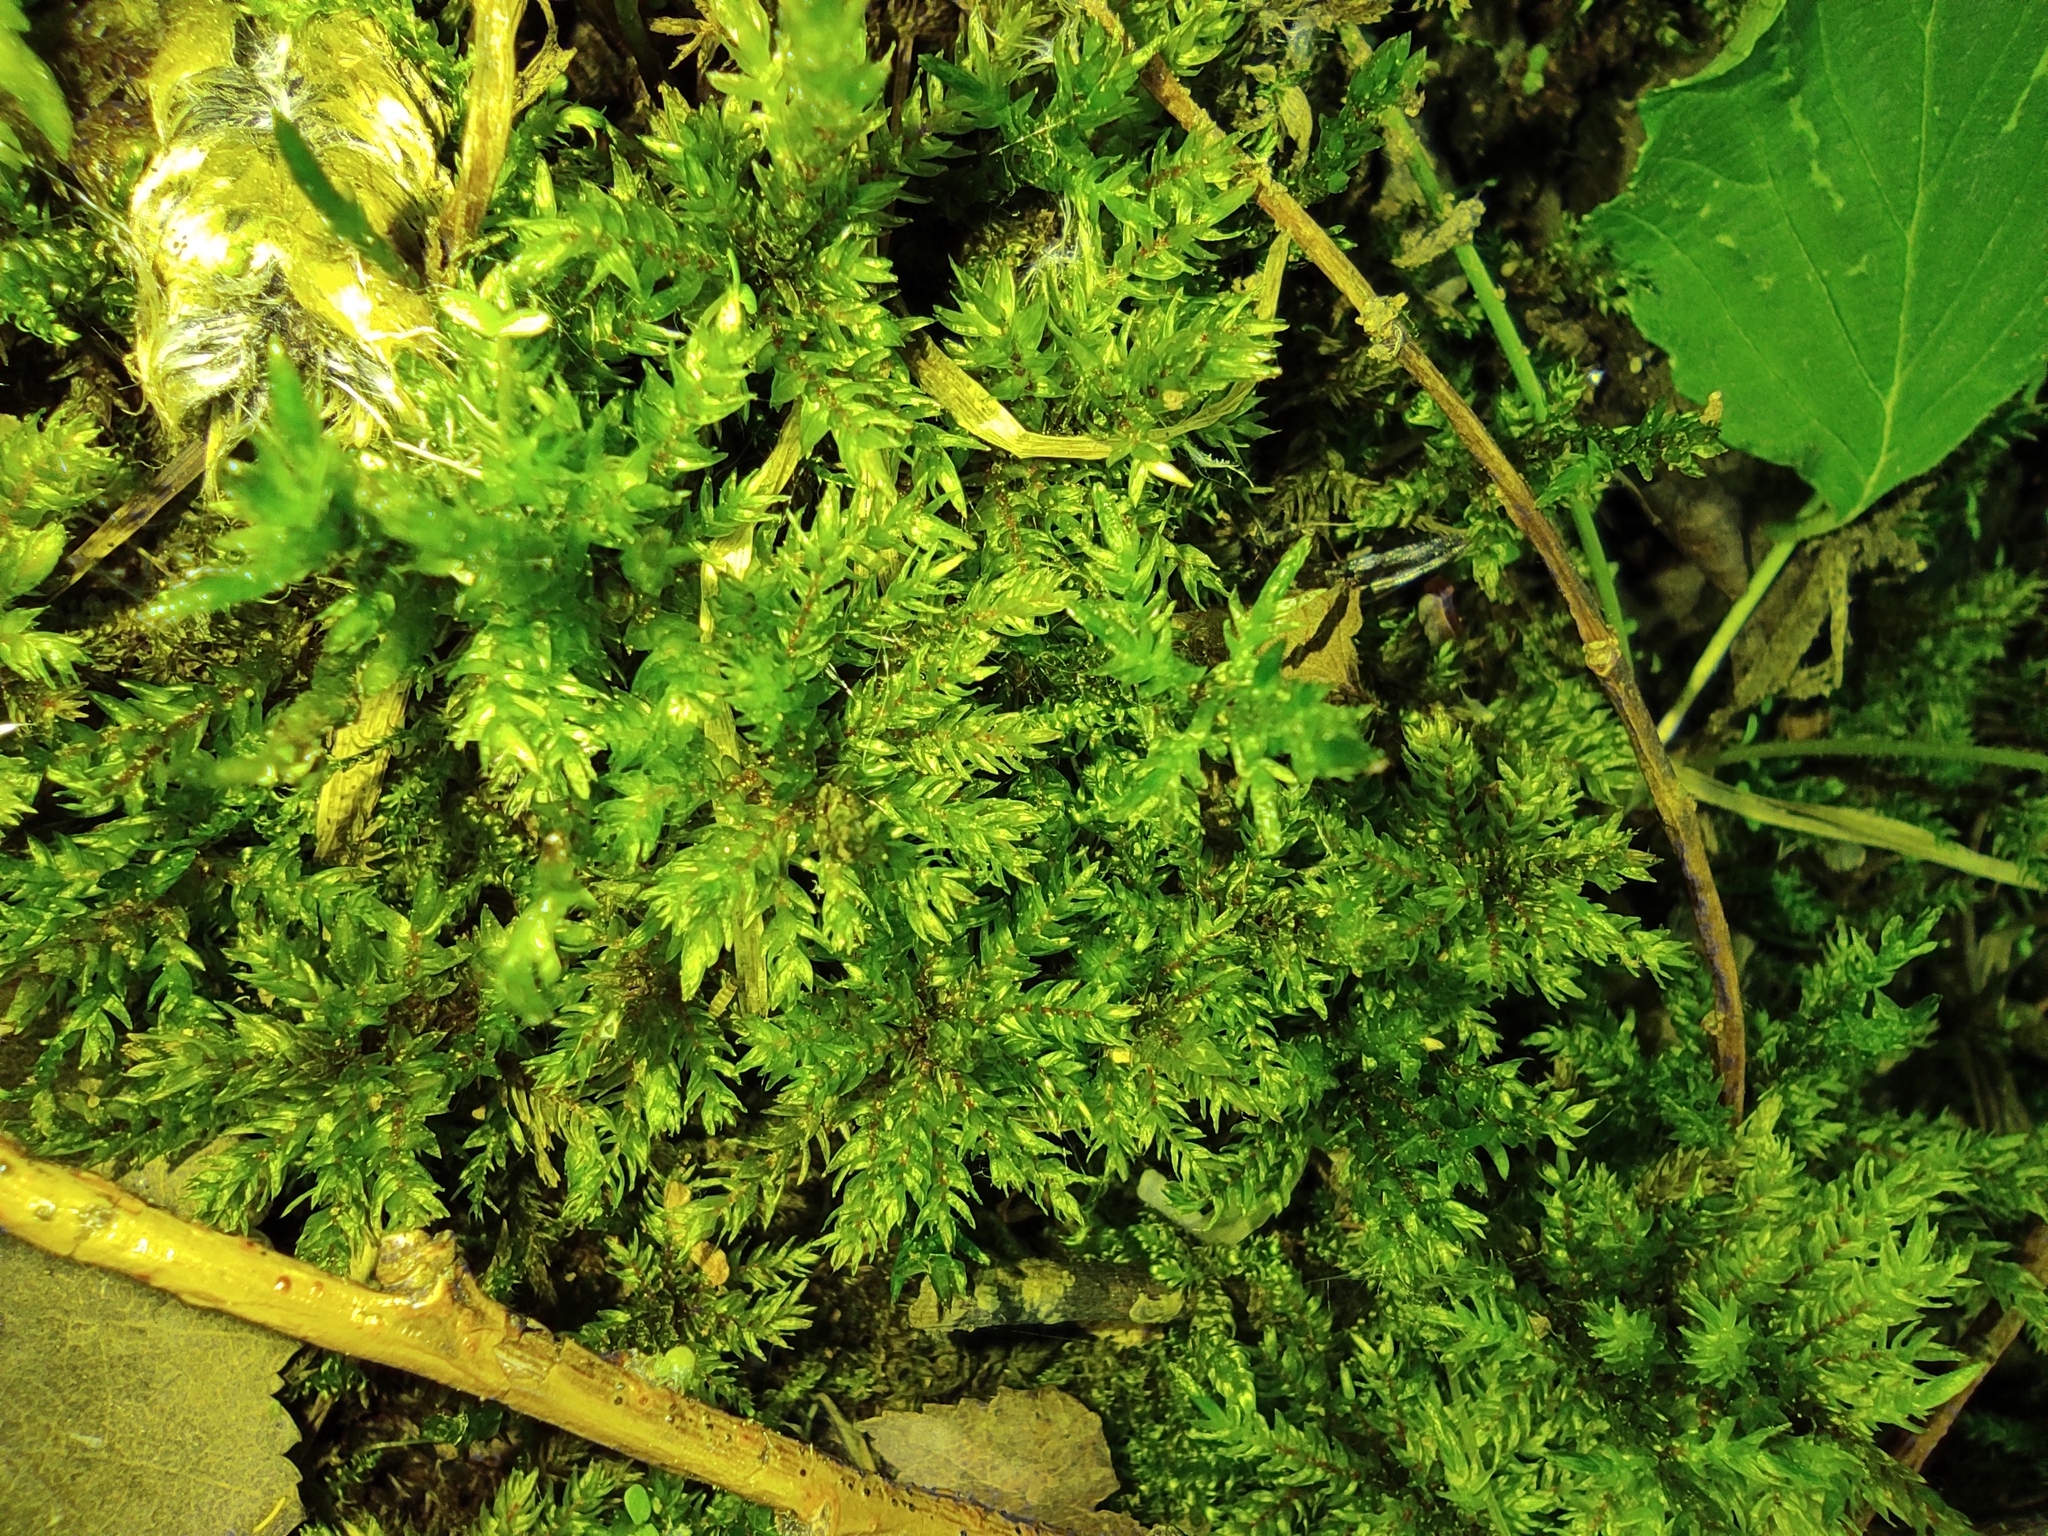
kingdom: Plantae
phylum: Bryophyta
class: Bryopsida
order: Hypnales
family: Climaciaceae
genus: Climacium
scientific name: Climacium dendroides
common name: Northern tree moss
